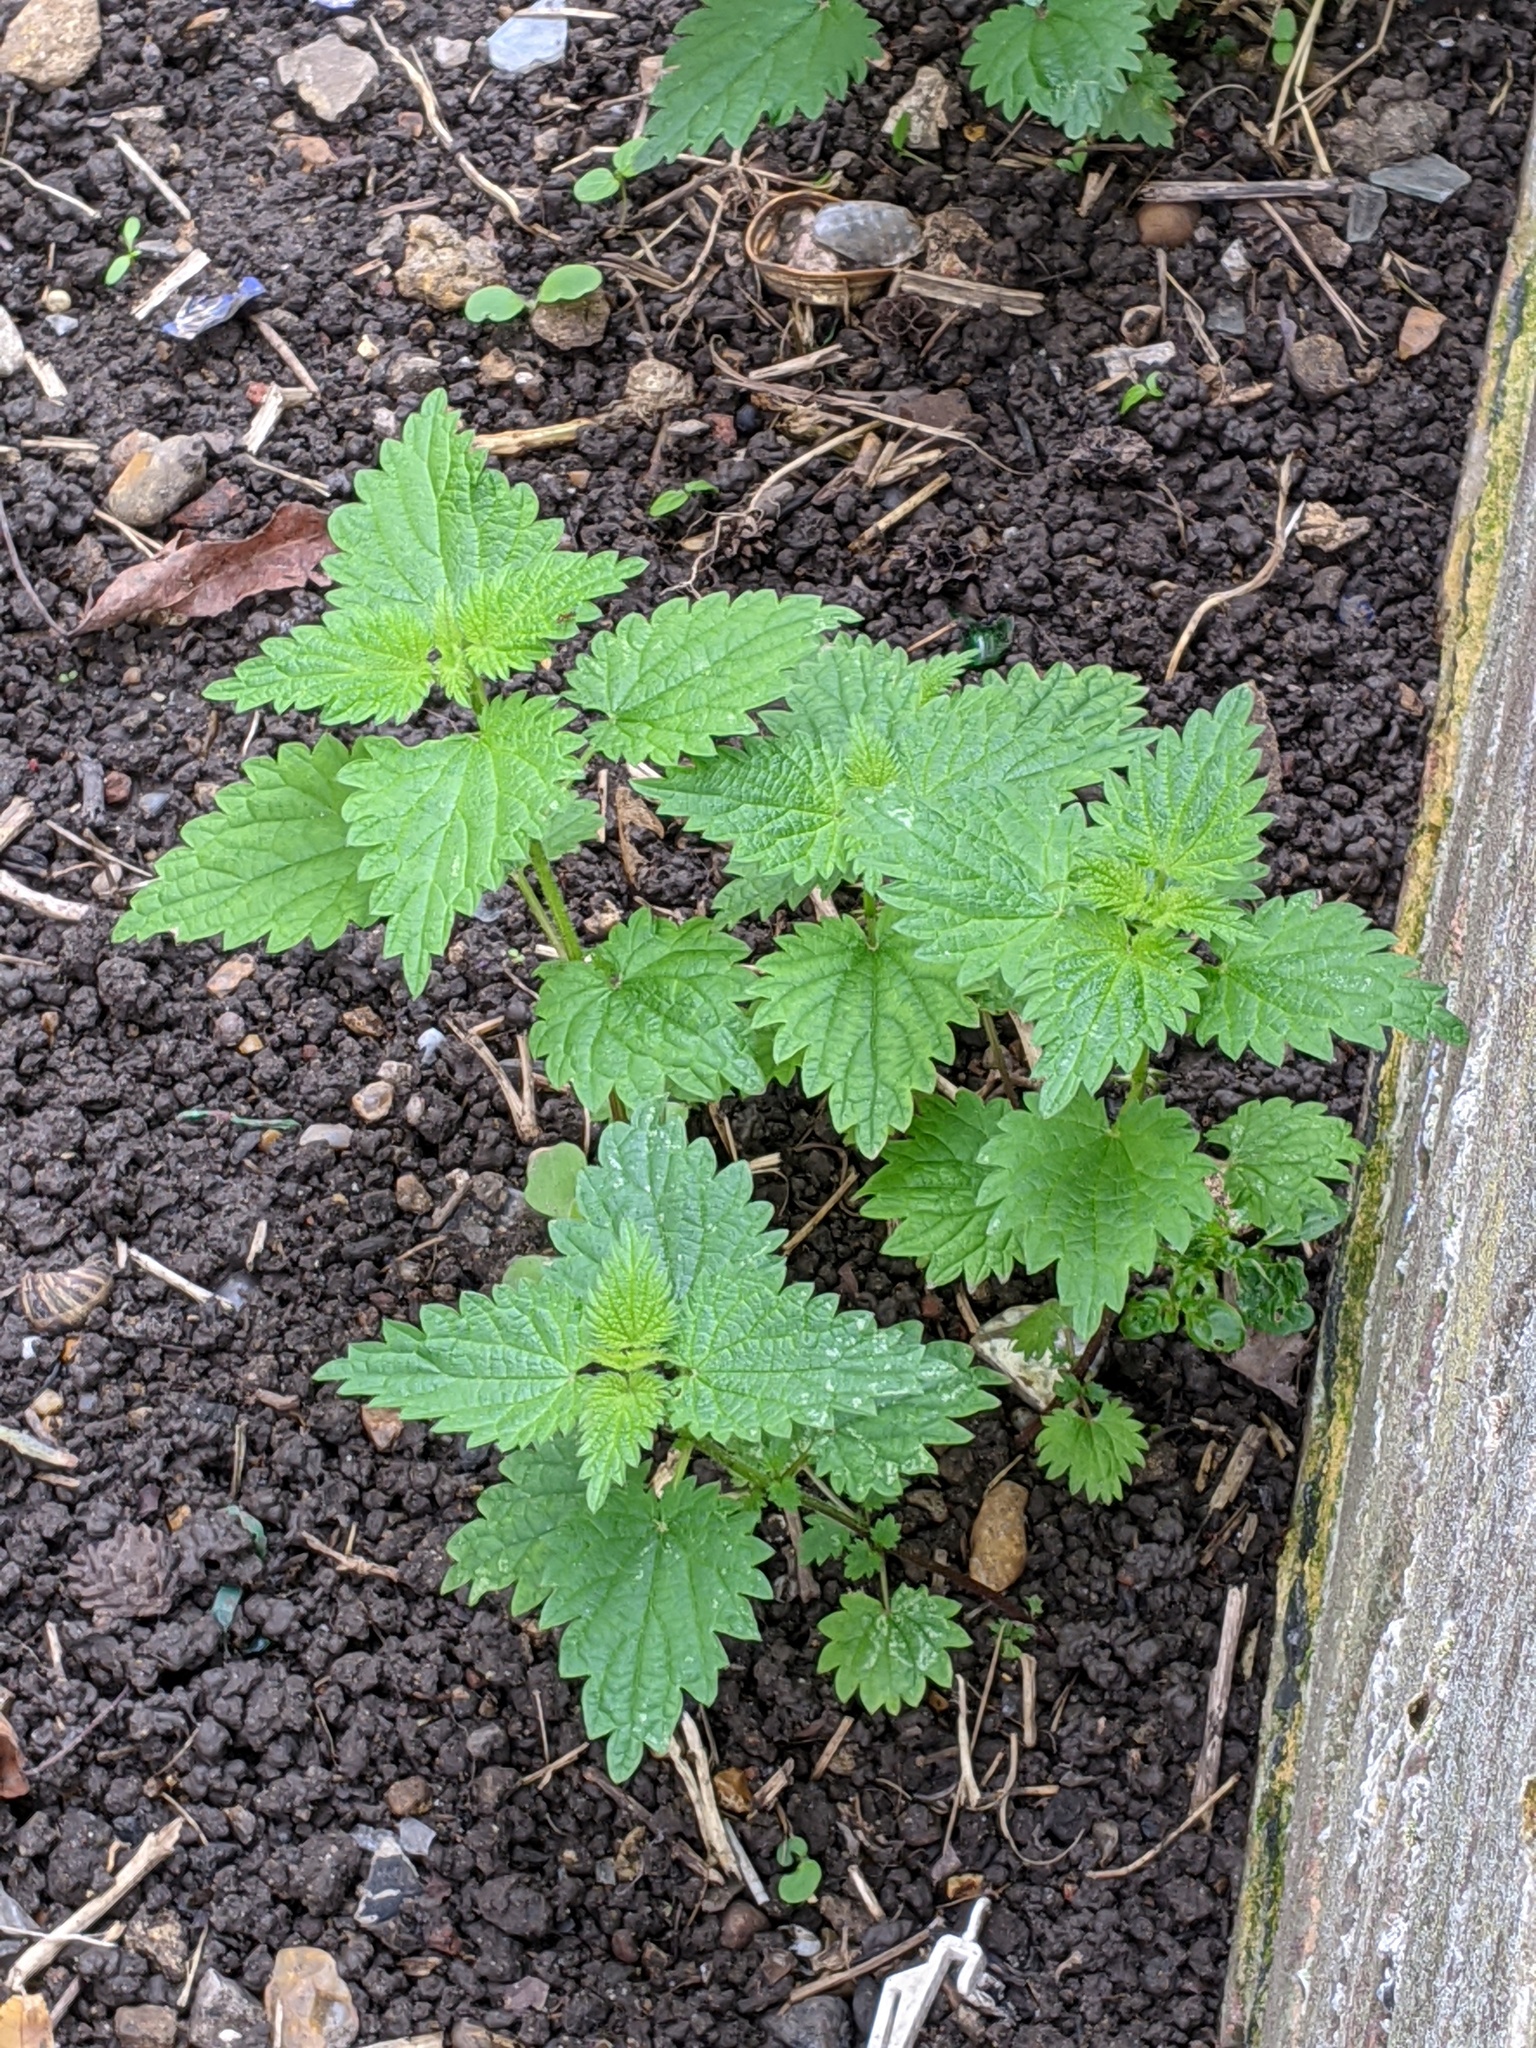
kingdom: Plantae
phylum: Tracheophyta
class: Magnoliopsida
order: Rosales
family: Urticaceae
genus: Urtica
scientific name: Urtica dioica
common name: Common nettle
